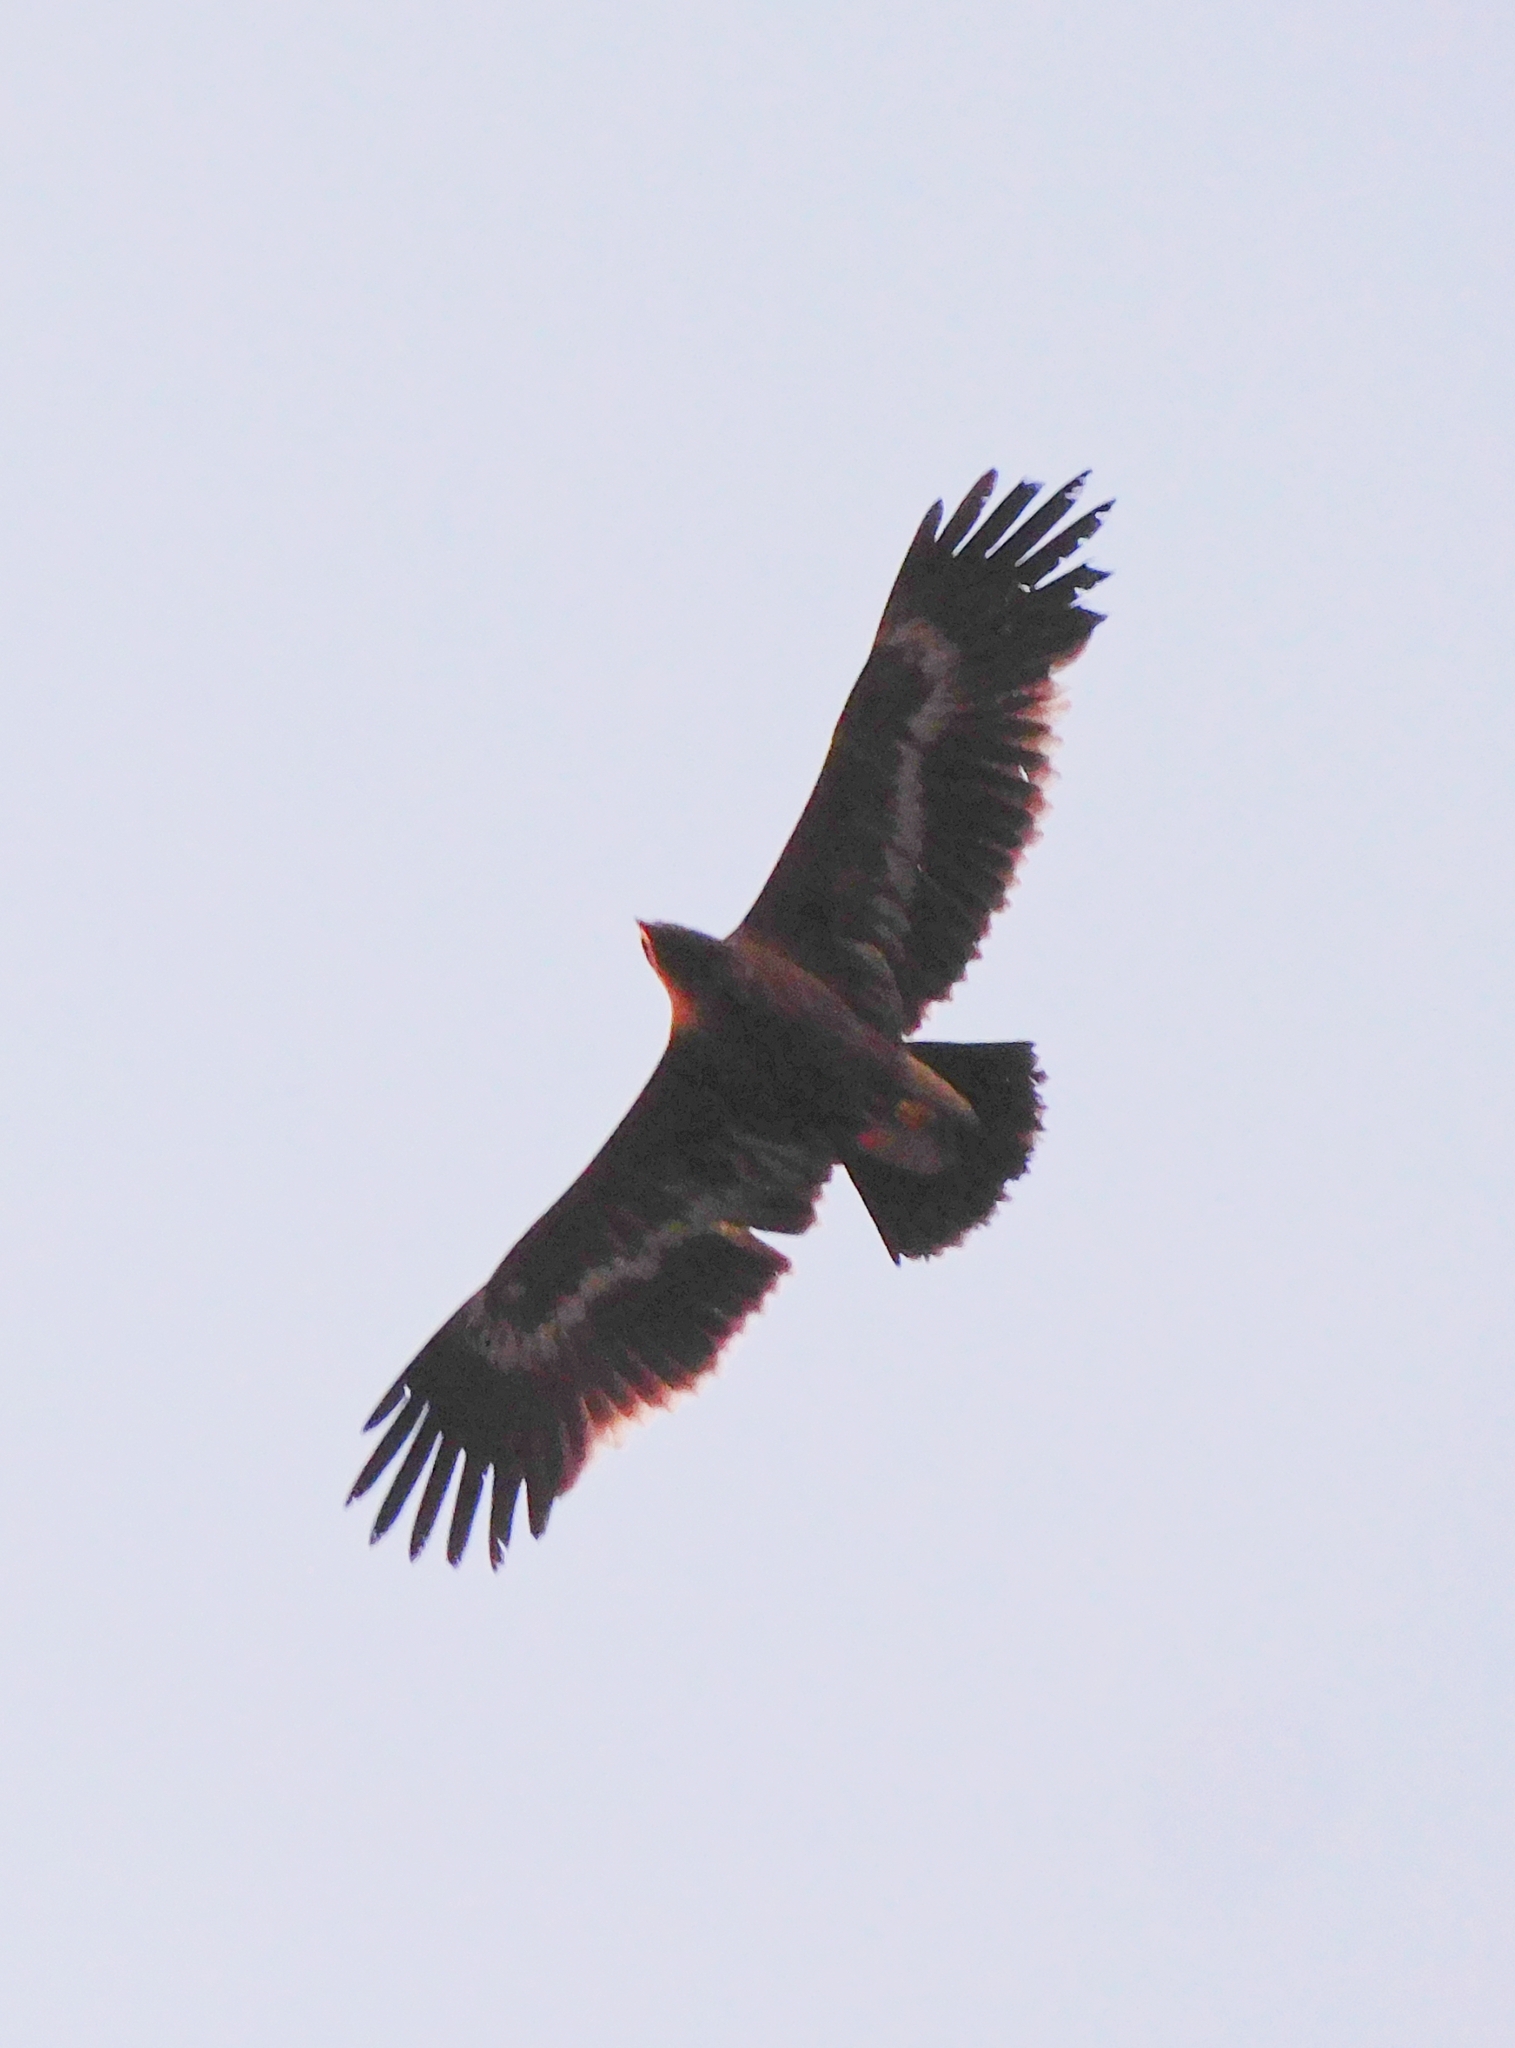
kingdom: Animalia
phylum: Chordata
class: Aves
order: Accipitriformes
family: Accipitridae
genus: Aquila
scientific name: Aquila nipalensis
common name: Steppe eagle
